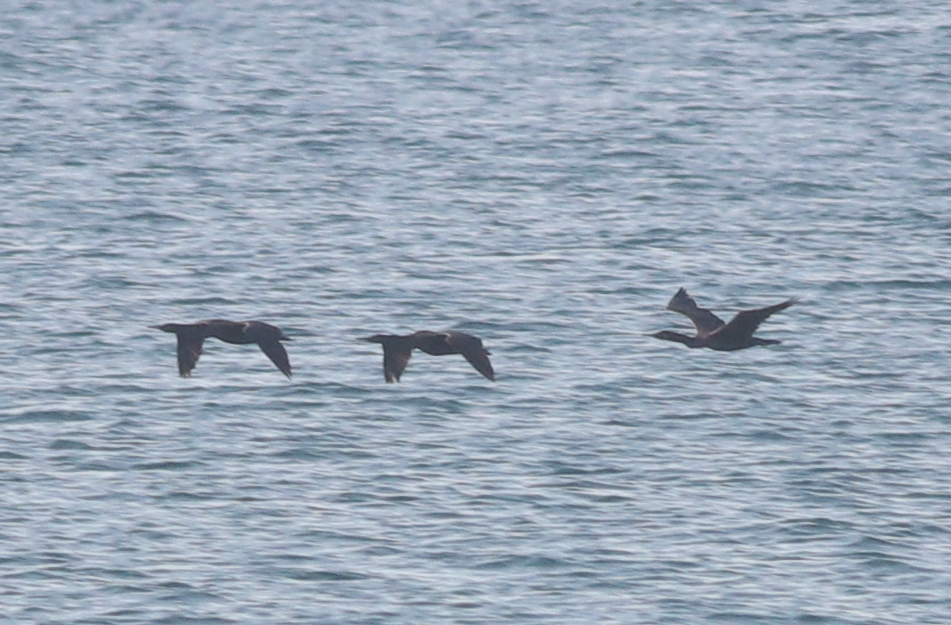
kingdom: Animalia
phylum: Chordata
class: Aves
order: Suliformes
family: Phalacrocoracidae
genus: Phalacrocorax
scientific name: Phalacrocorax nigrogularis
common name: Socotra cormorant
